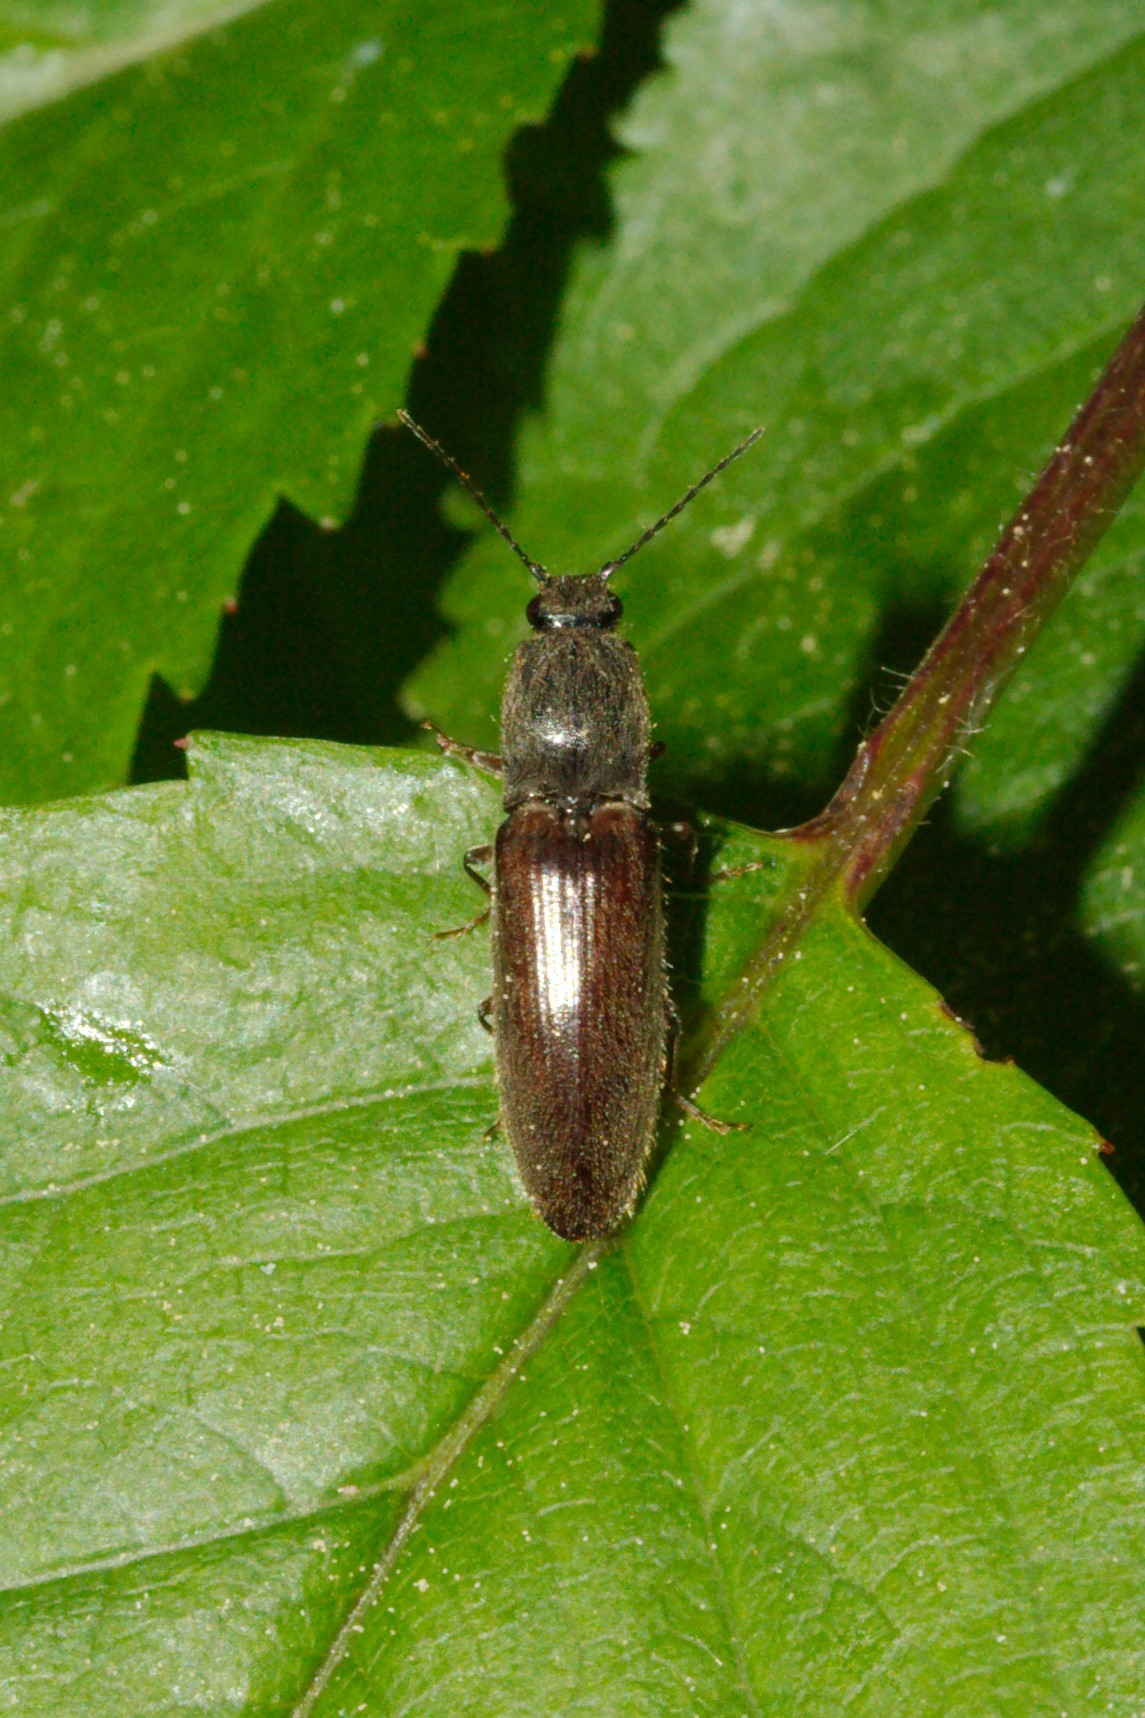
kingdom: Animalia
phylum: Arthropoda
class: Insecta
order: Coleoptera
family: Elateridae
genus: Athous
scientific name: Athous haemorrhoidalis
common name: Red-brown click beetle
